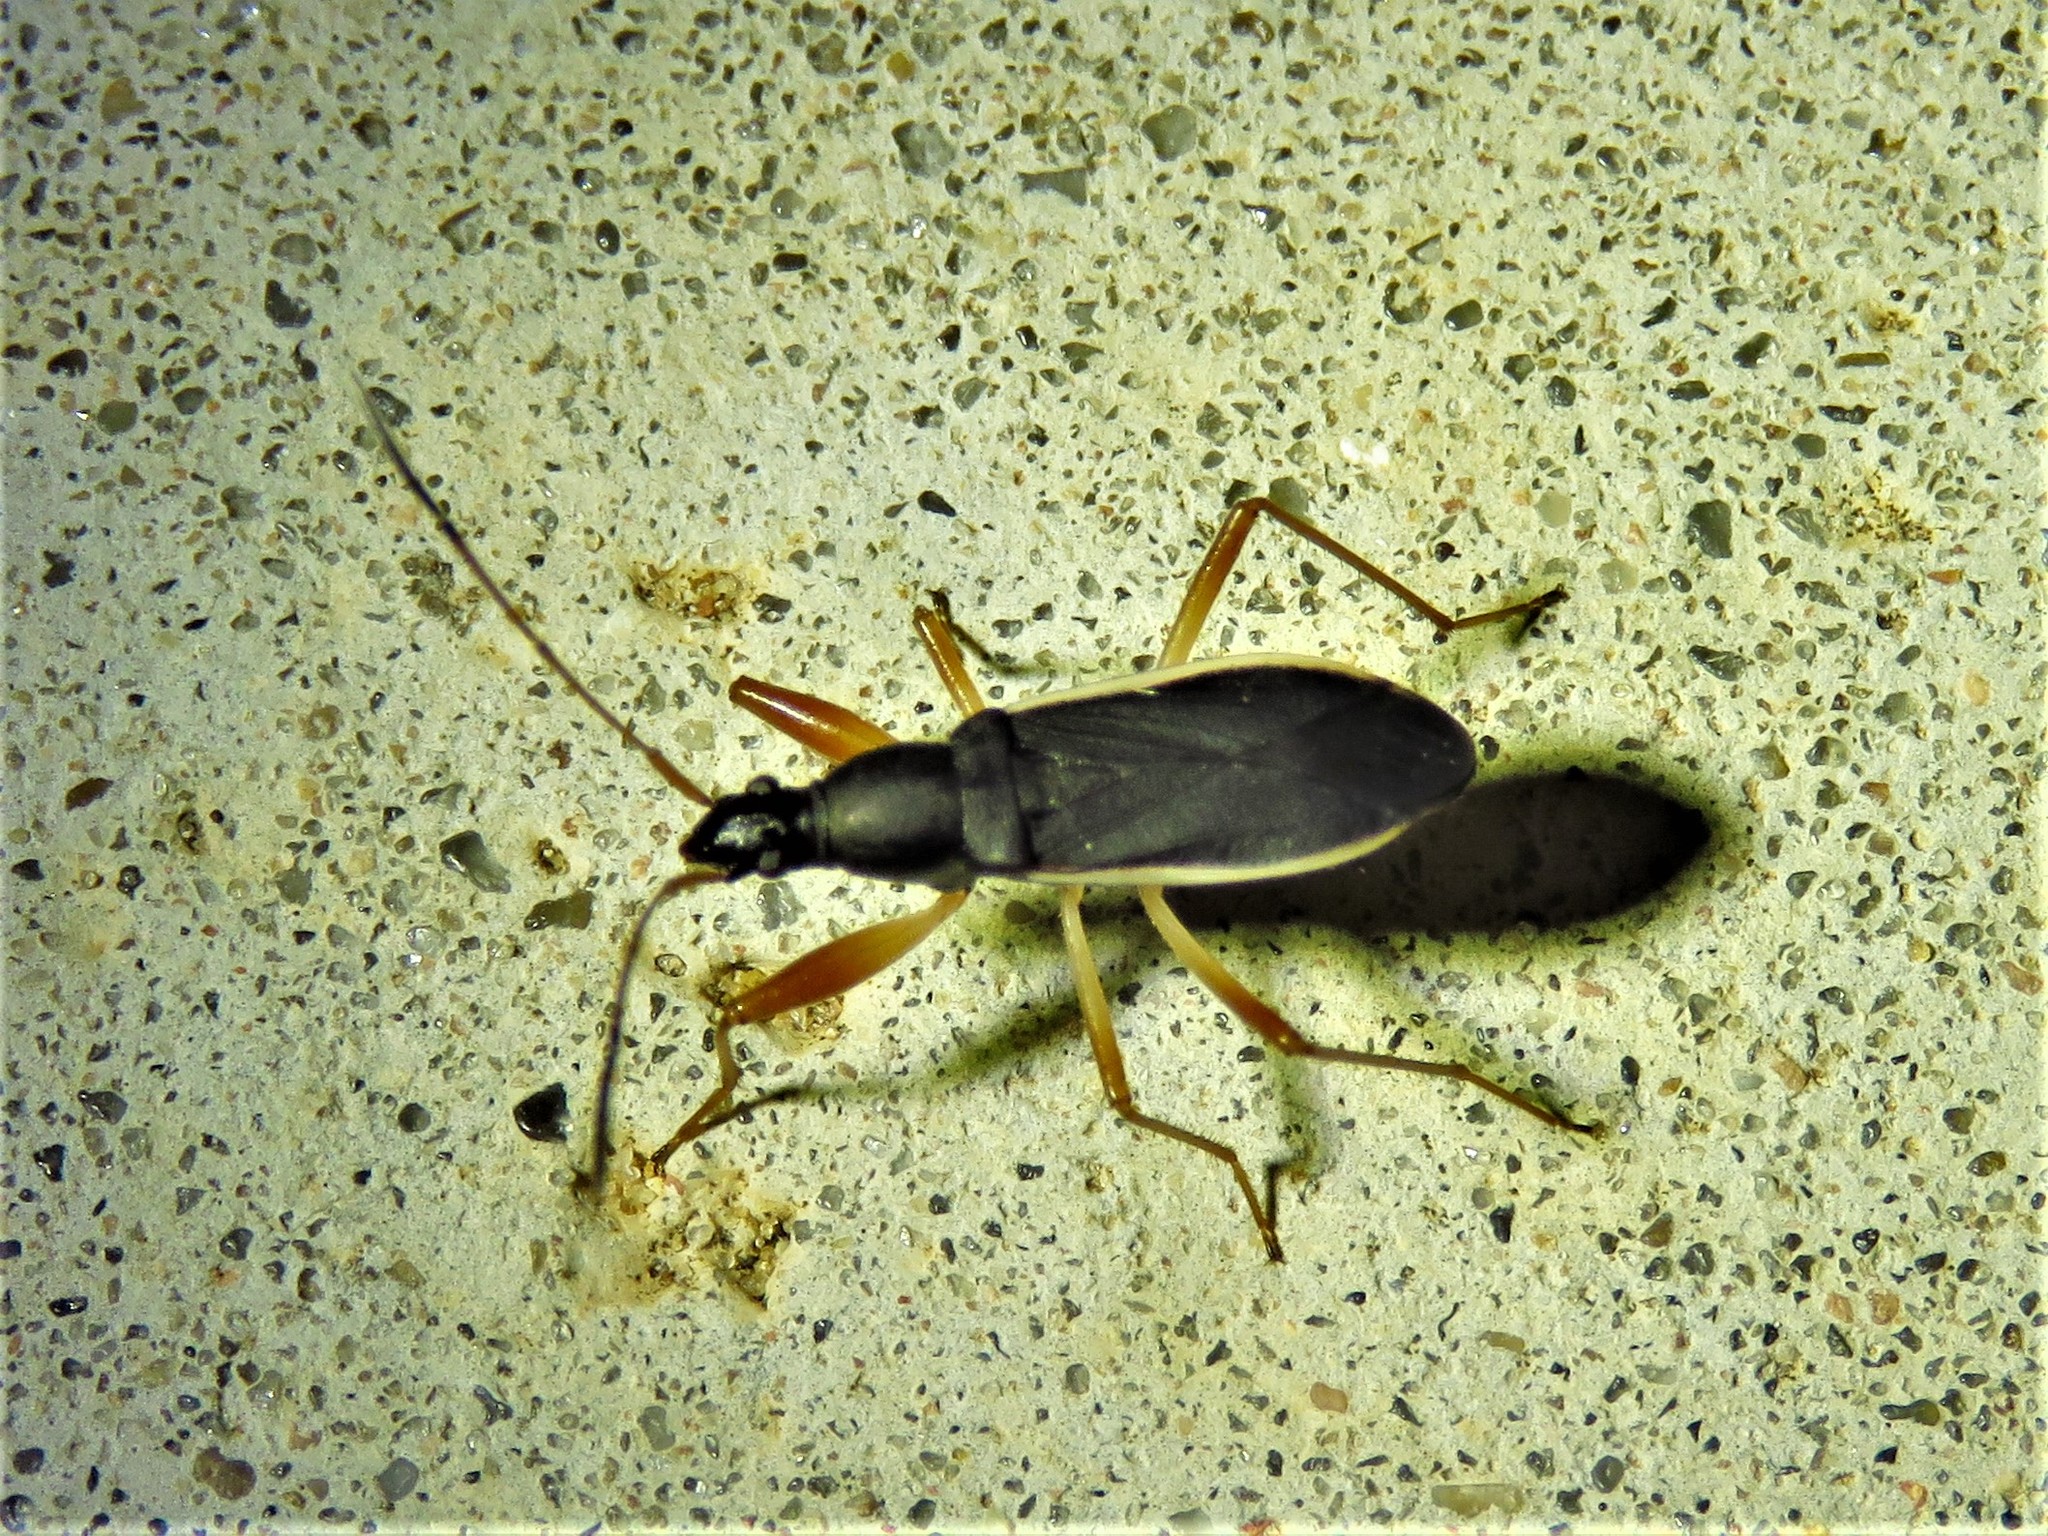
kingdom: Animalia
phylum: Arthropoda
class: Insecta
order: Hemiptera
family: Rhyparochromidae
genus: Cnemodus
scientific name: Cnemodus mavortius
